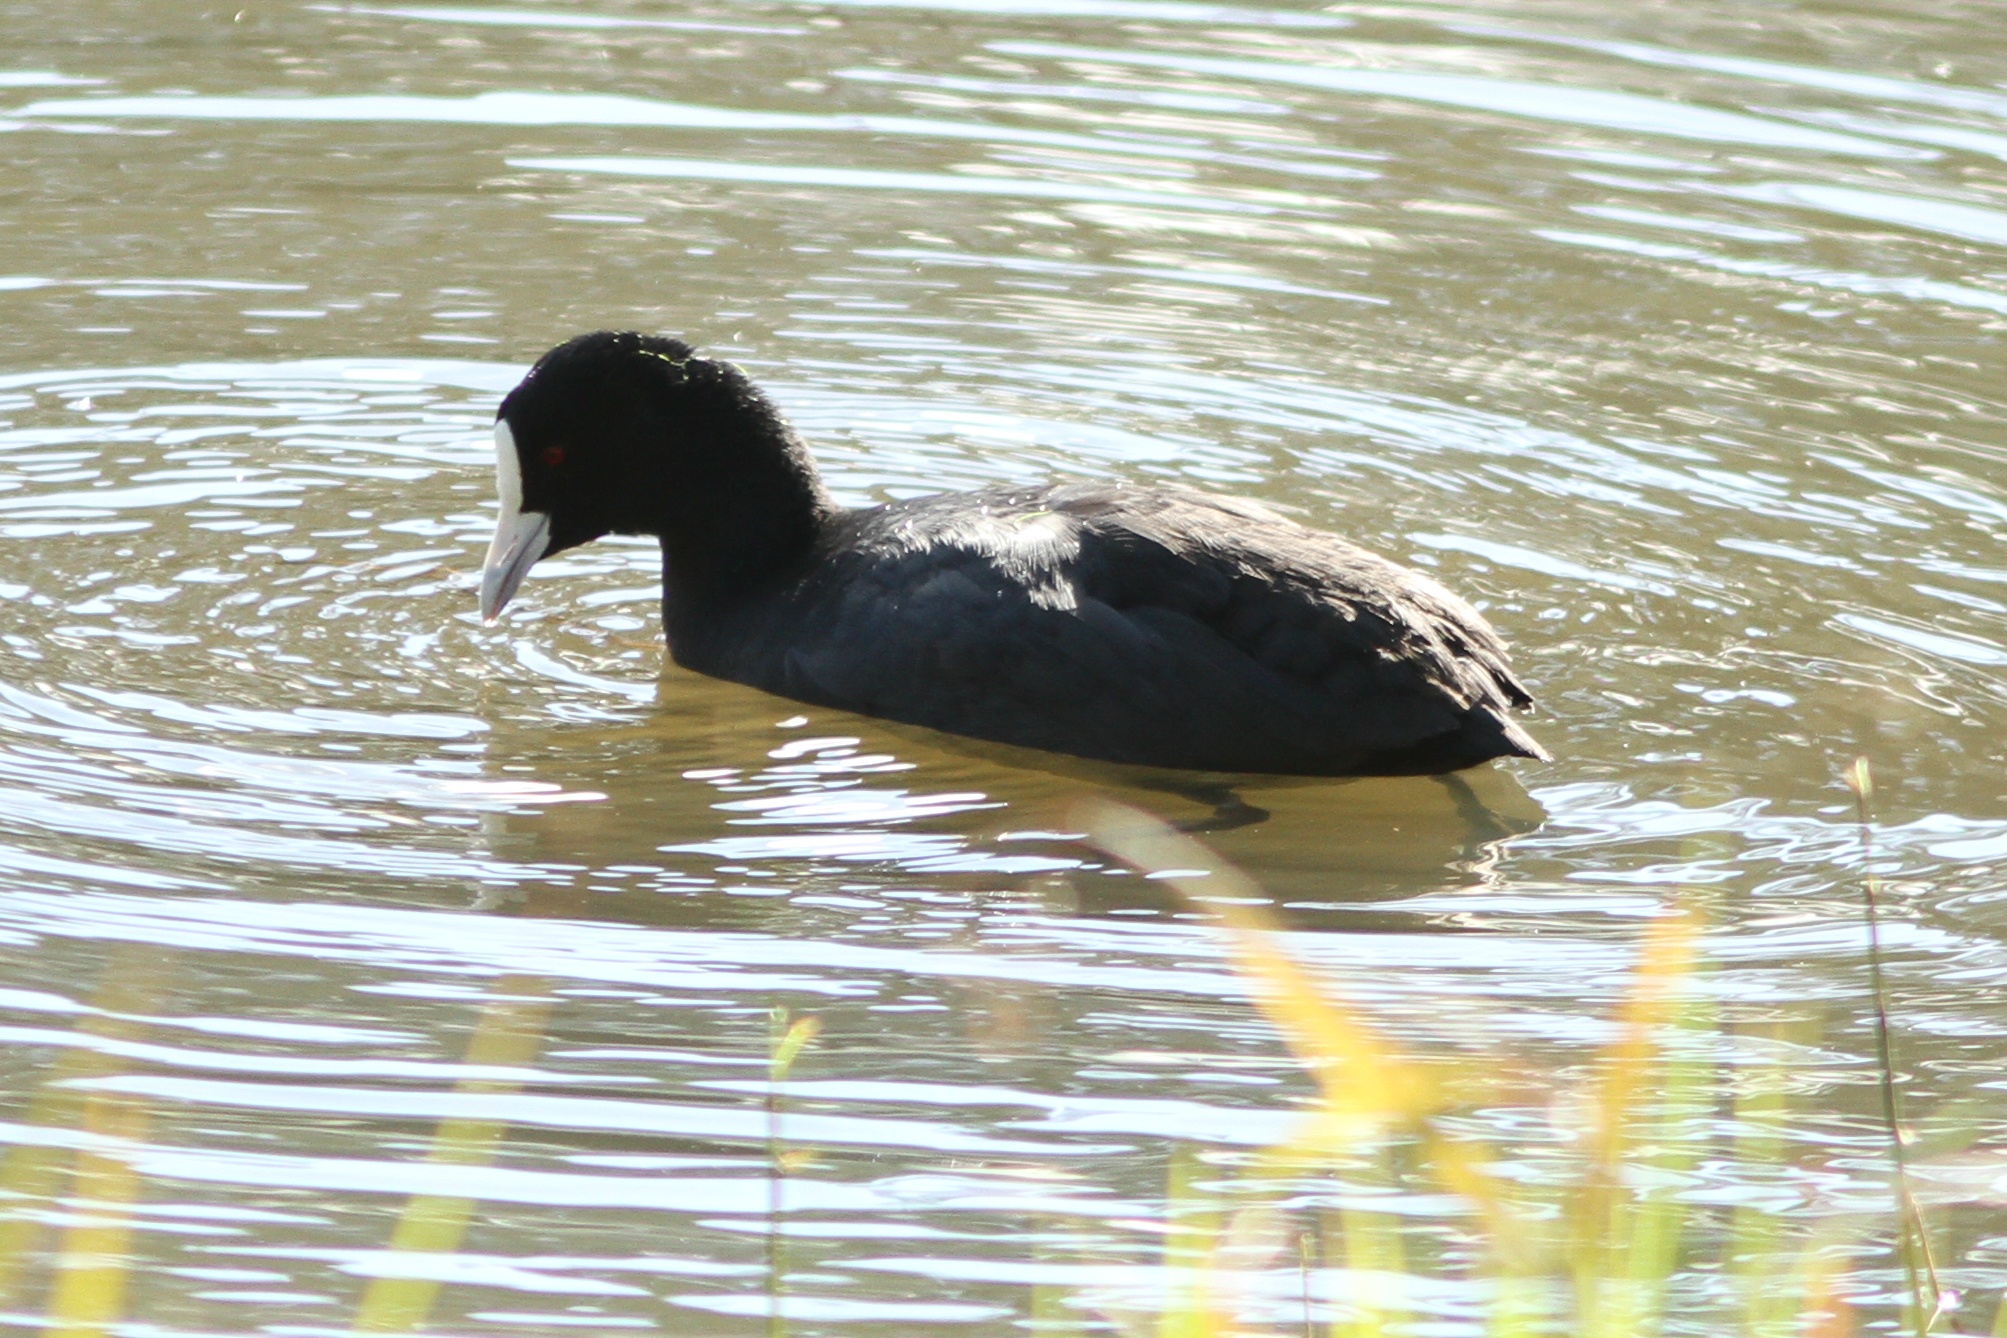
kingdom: Animalia
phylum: Chordata
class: Aves
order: Gruiformes
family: Rallidae
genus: Fulica
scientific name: Fulica atra
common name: Eurasian coot
